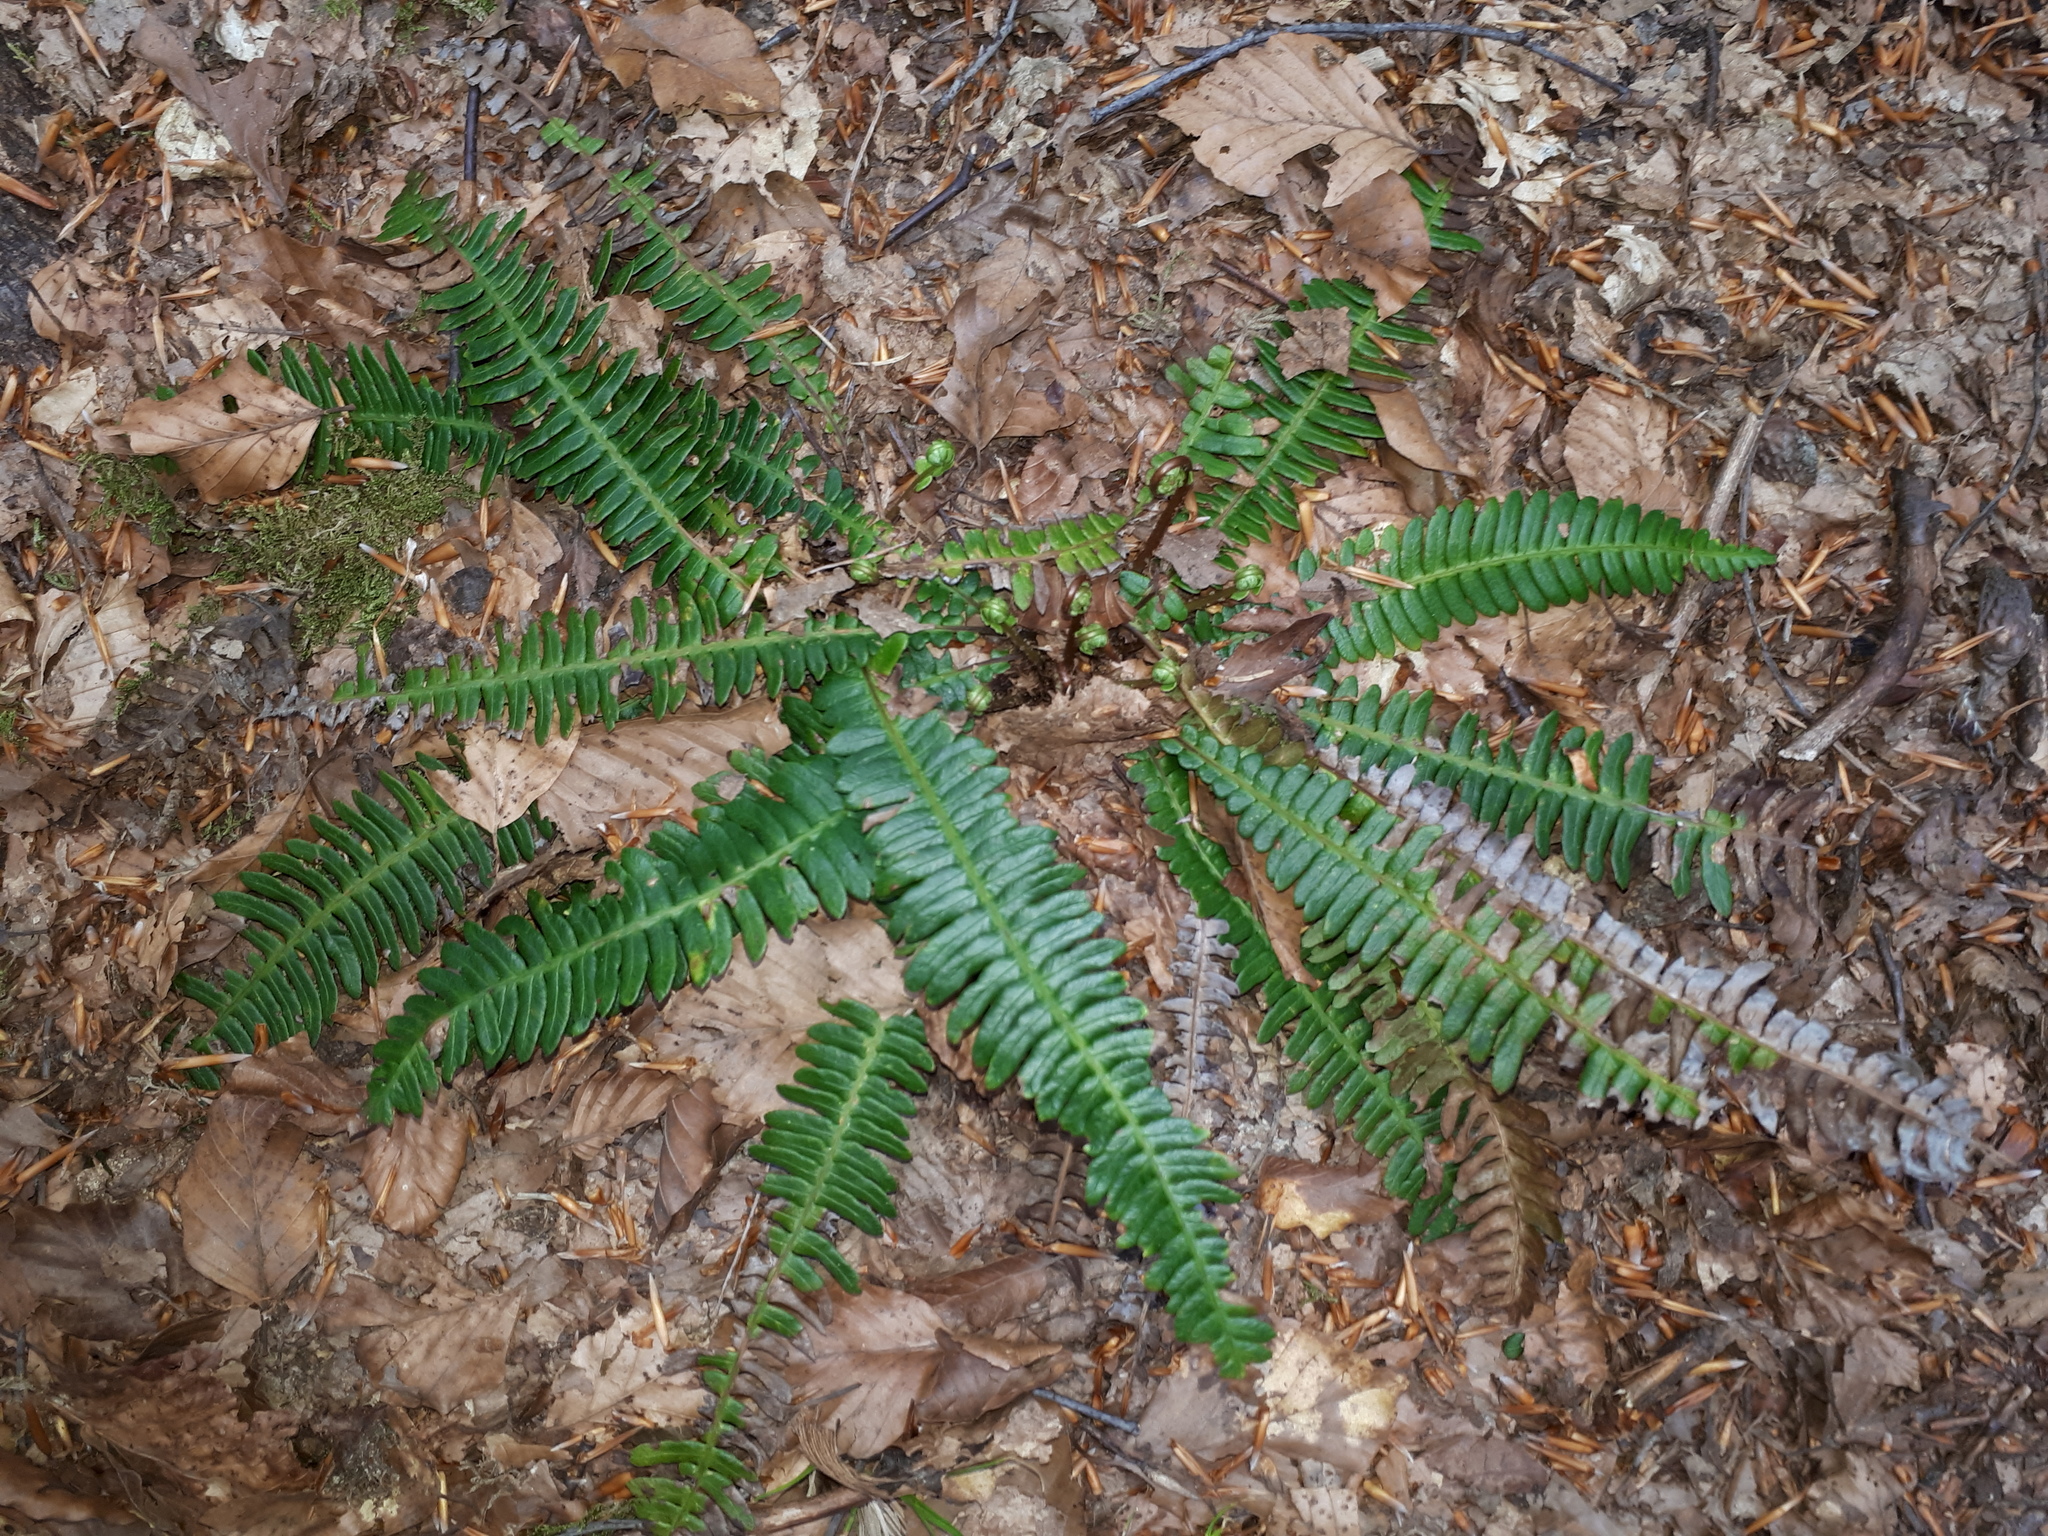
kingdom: Plantae
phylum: Tracheophyta
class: Polypodiopsida
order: Polypodiales
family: Blechnaceae
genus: Struthiopteris
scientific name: Struthiopteris spicant
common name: Deer fern
